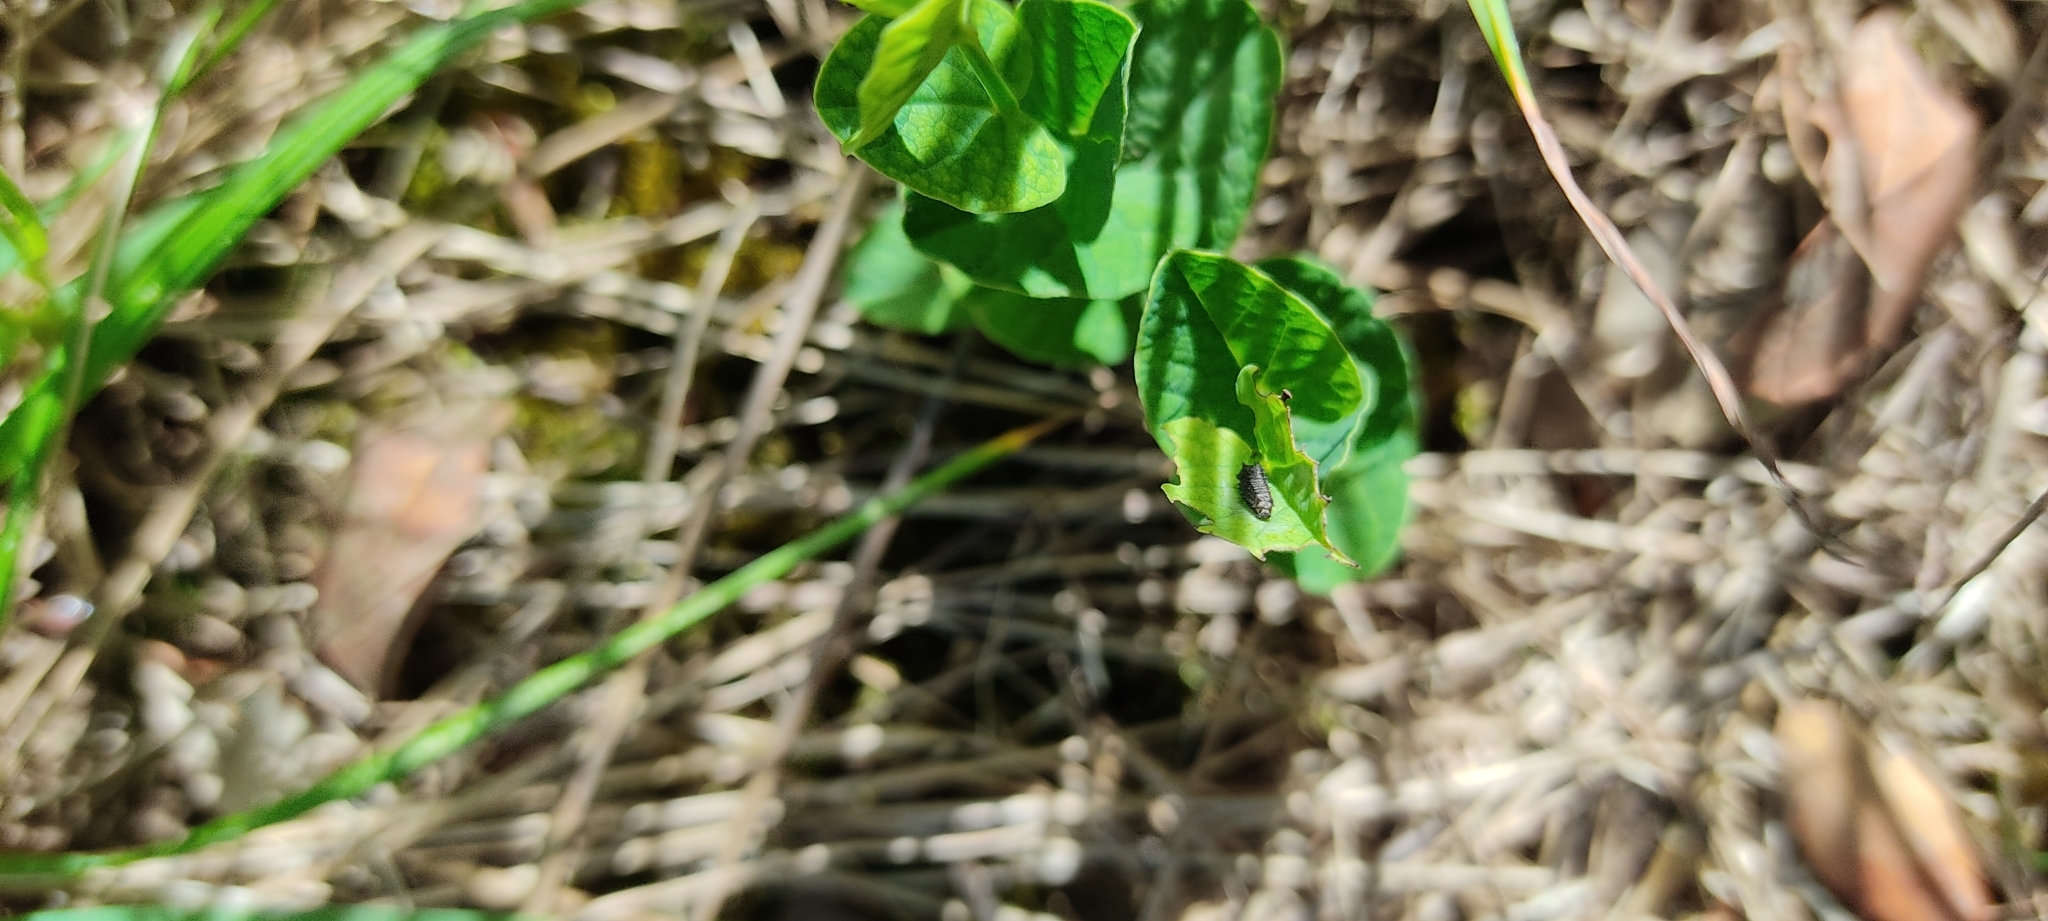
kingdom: Animalia
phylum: Arthropoda
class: Insecta
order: Lepidoptera
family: Papilionidae
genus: Zerynthia
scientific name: Zerynthia polyxena
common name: Southern festoon
